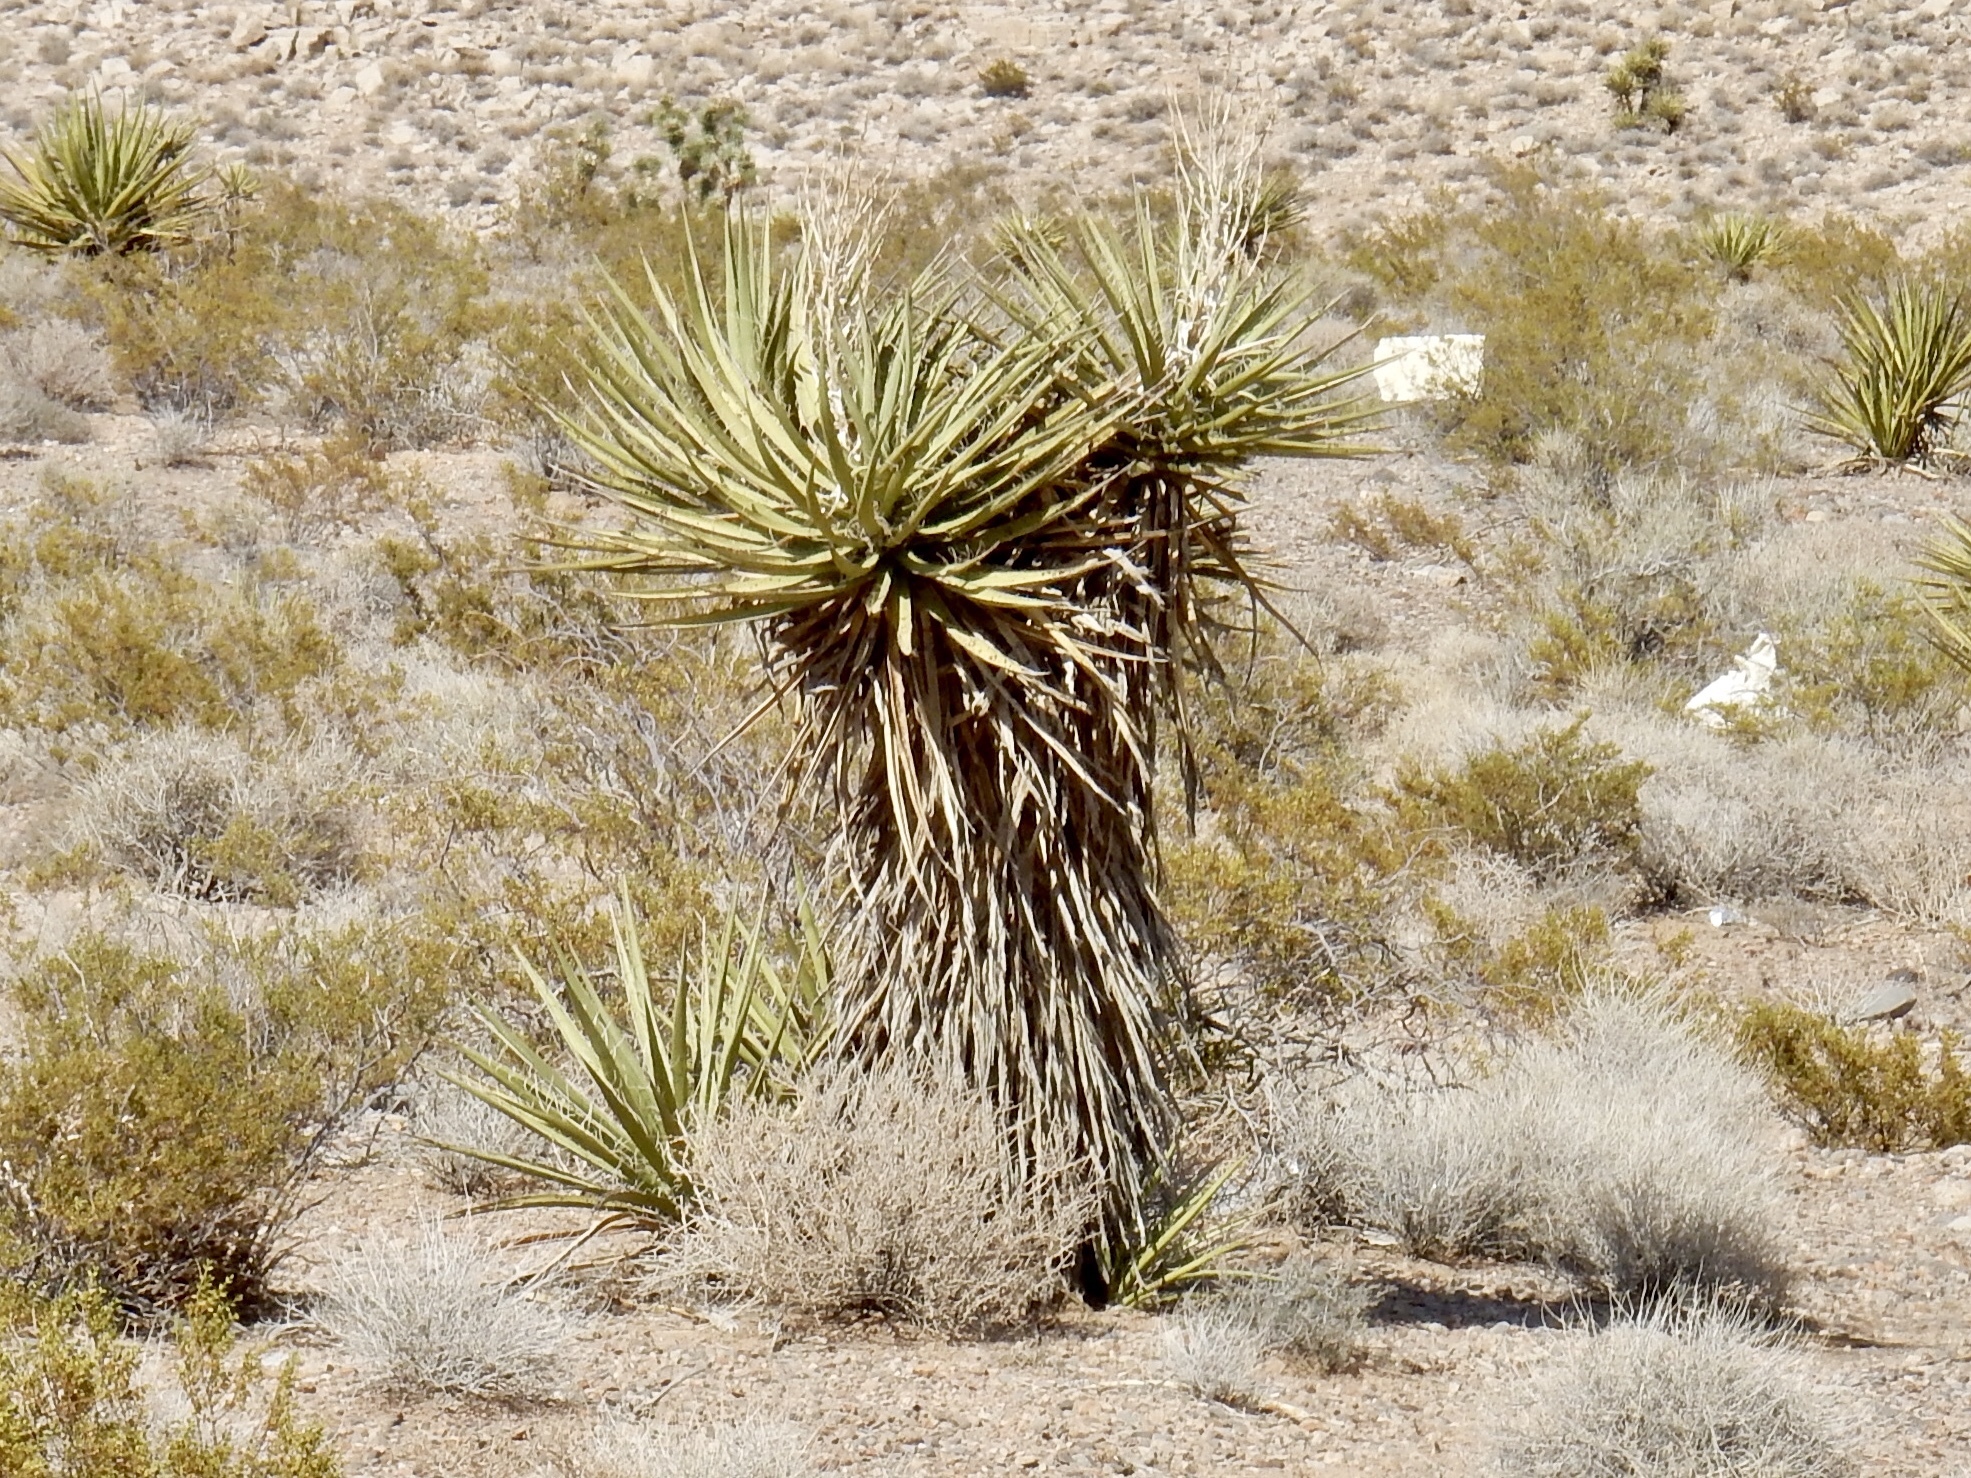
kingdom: Plantae
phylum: Tracheophyta
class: Liliopsida
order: Asparagales
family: Asparagaceae
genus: Yucca
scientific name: Yucca schidigera
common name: Mojave yucca
